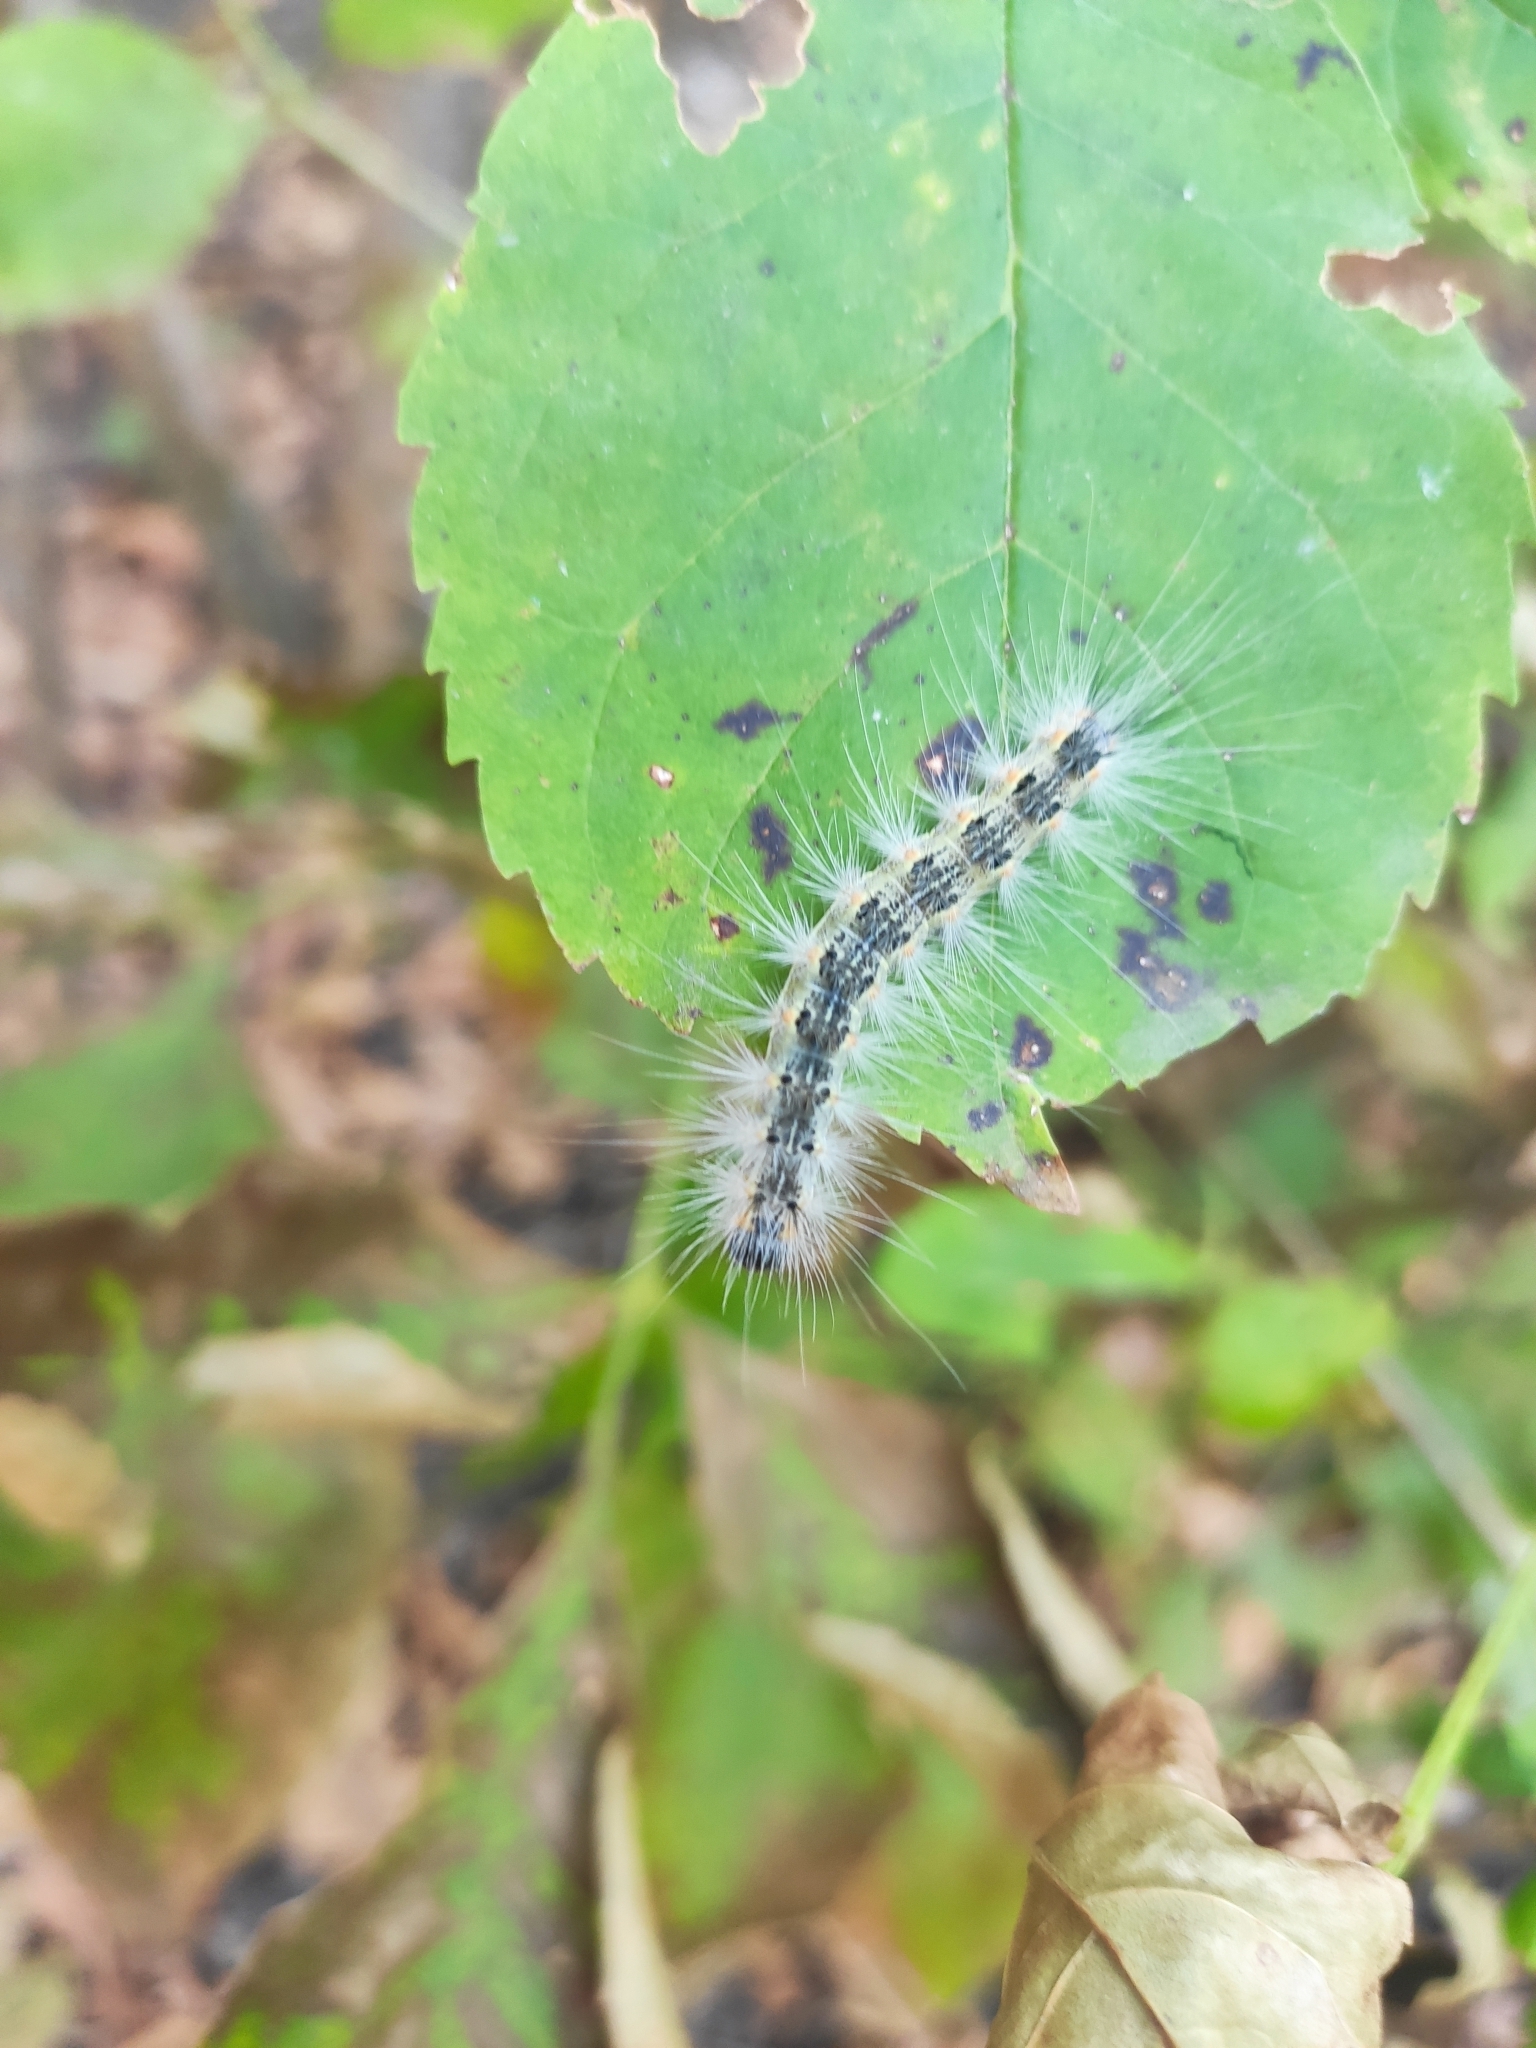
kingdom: Animalia
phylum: Arthropoda
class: Insecta
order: Lepidoptera
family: Erebidae
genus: Hyphantria
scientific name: Hyphantria cunea
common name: American white moth
